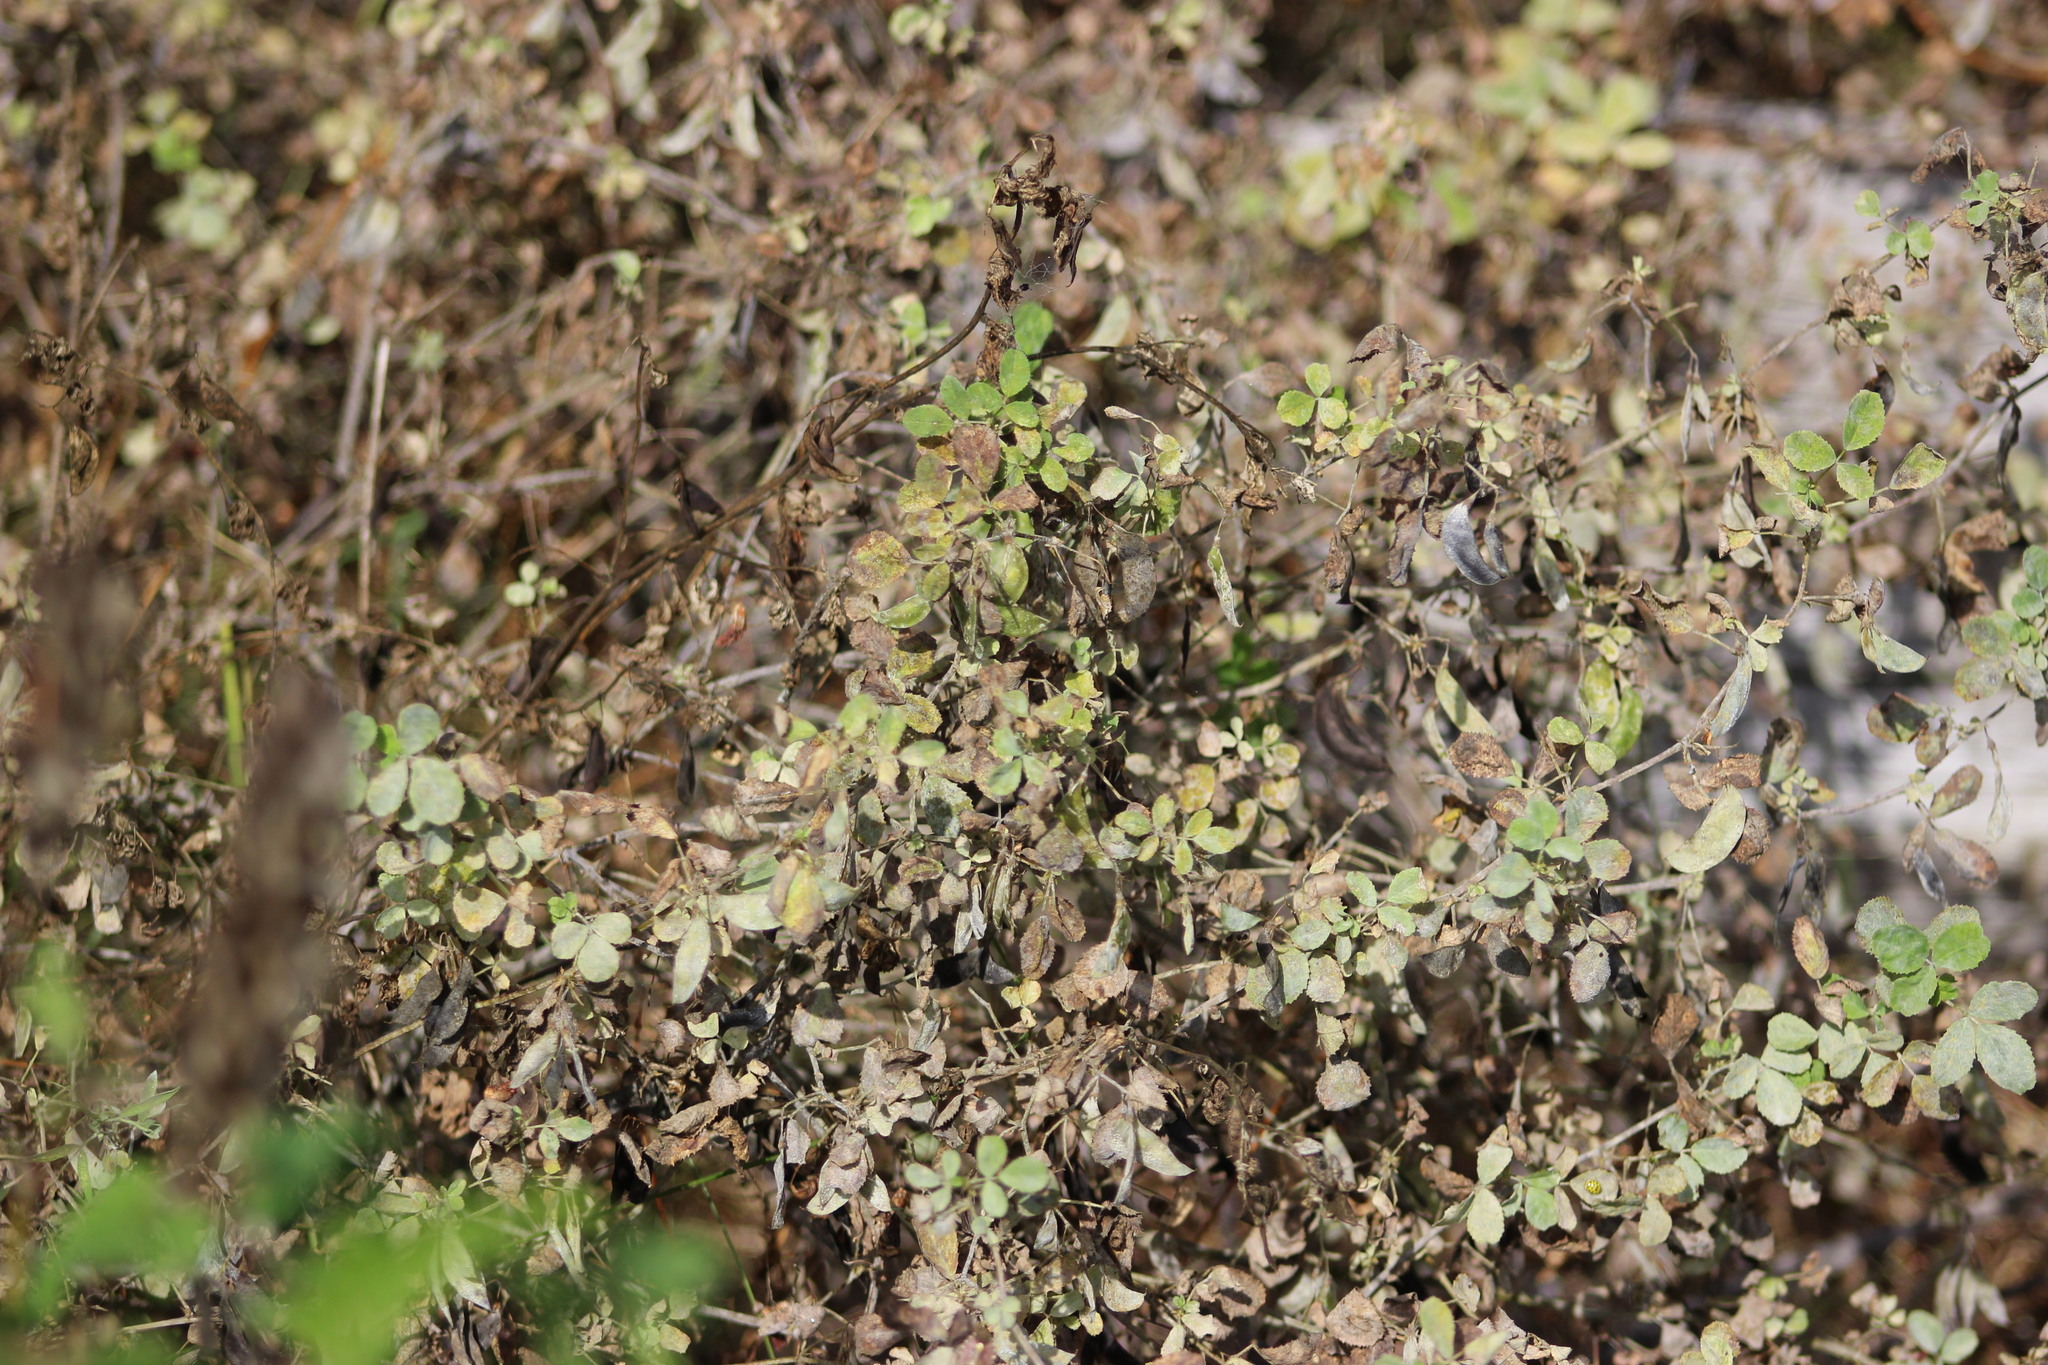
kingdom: Plantae
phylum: Tracheophyta
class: Magnoliopsida
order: Fabales
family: Fabaceae
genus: Medicago
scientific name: Medicago lupulina
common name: Black medick
